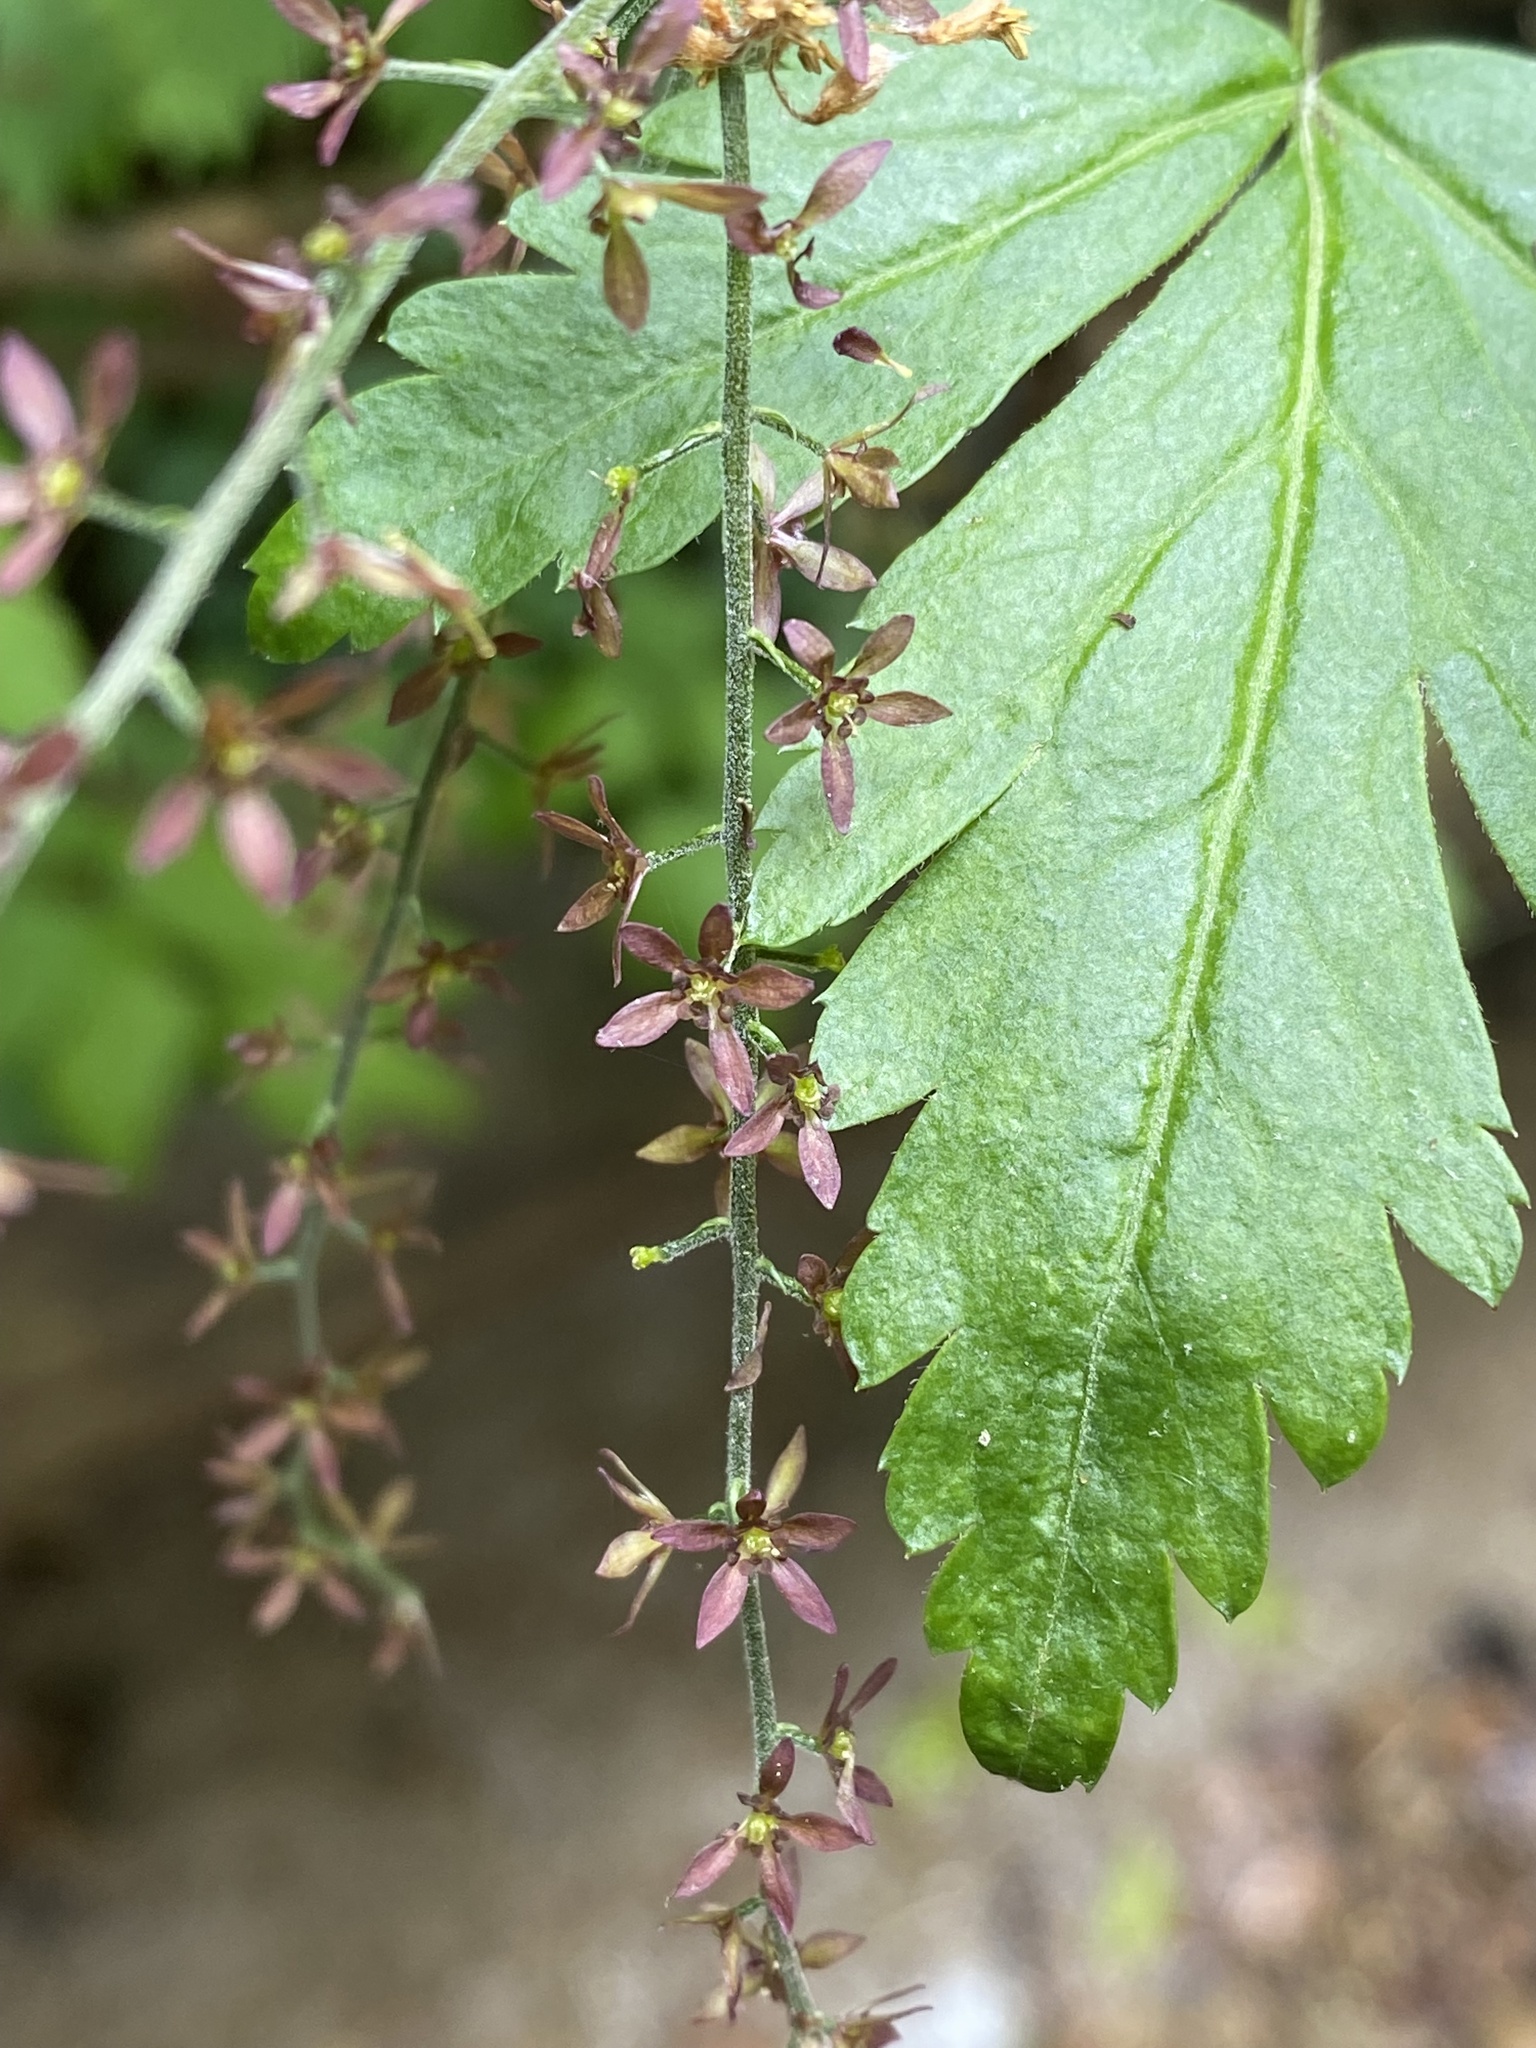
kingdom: Plantae
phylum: Tracheophyta
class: Magnoliopsida
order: Ranunculales
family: Ranunculaceae
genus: Xanthorhiza
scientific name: Xanthorhiza simplicissima
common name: Yellowroot
